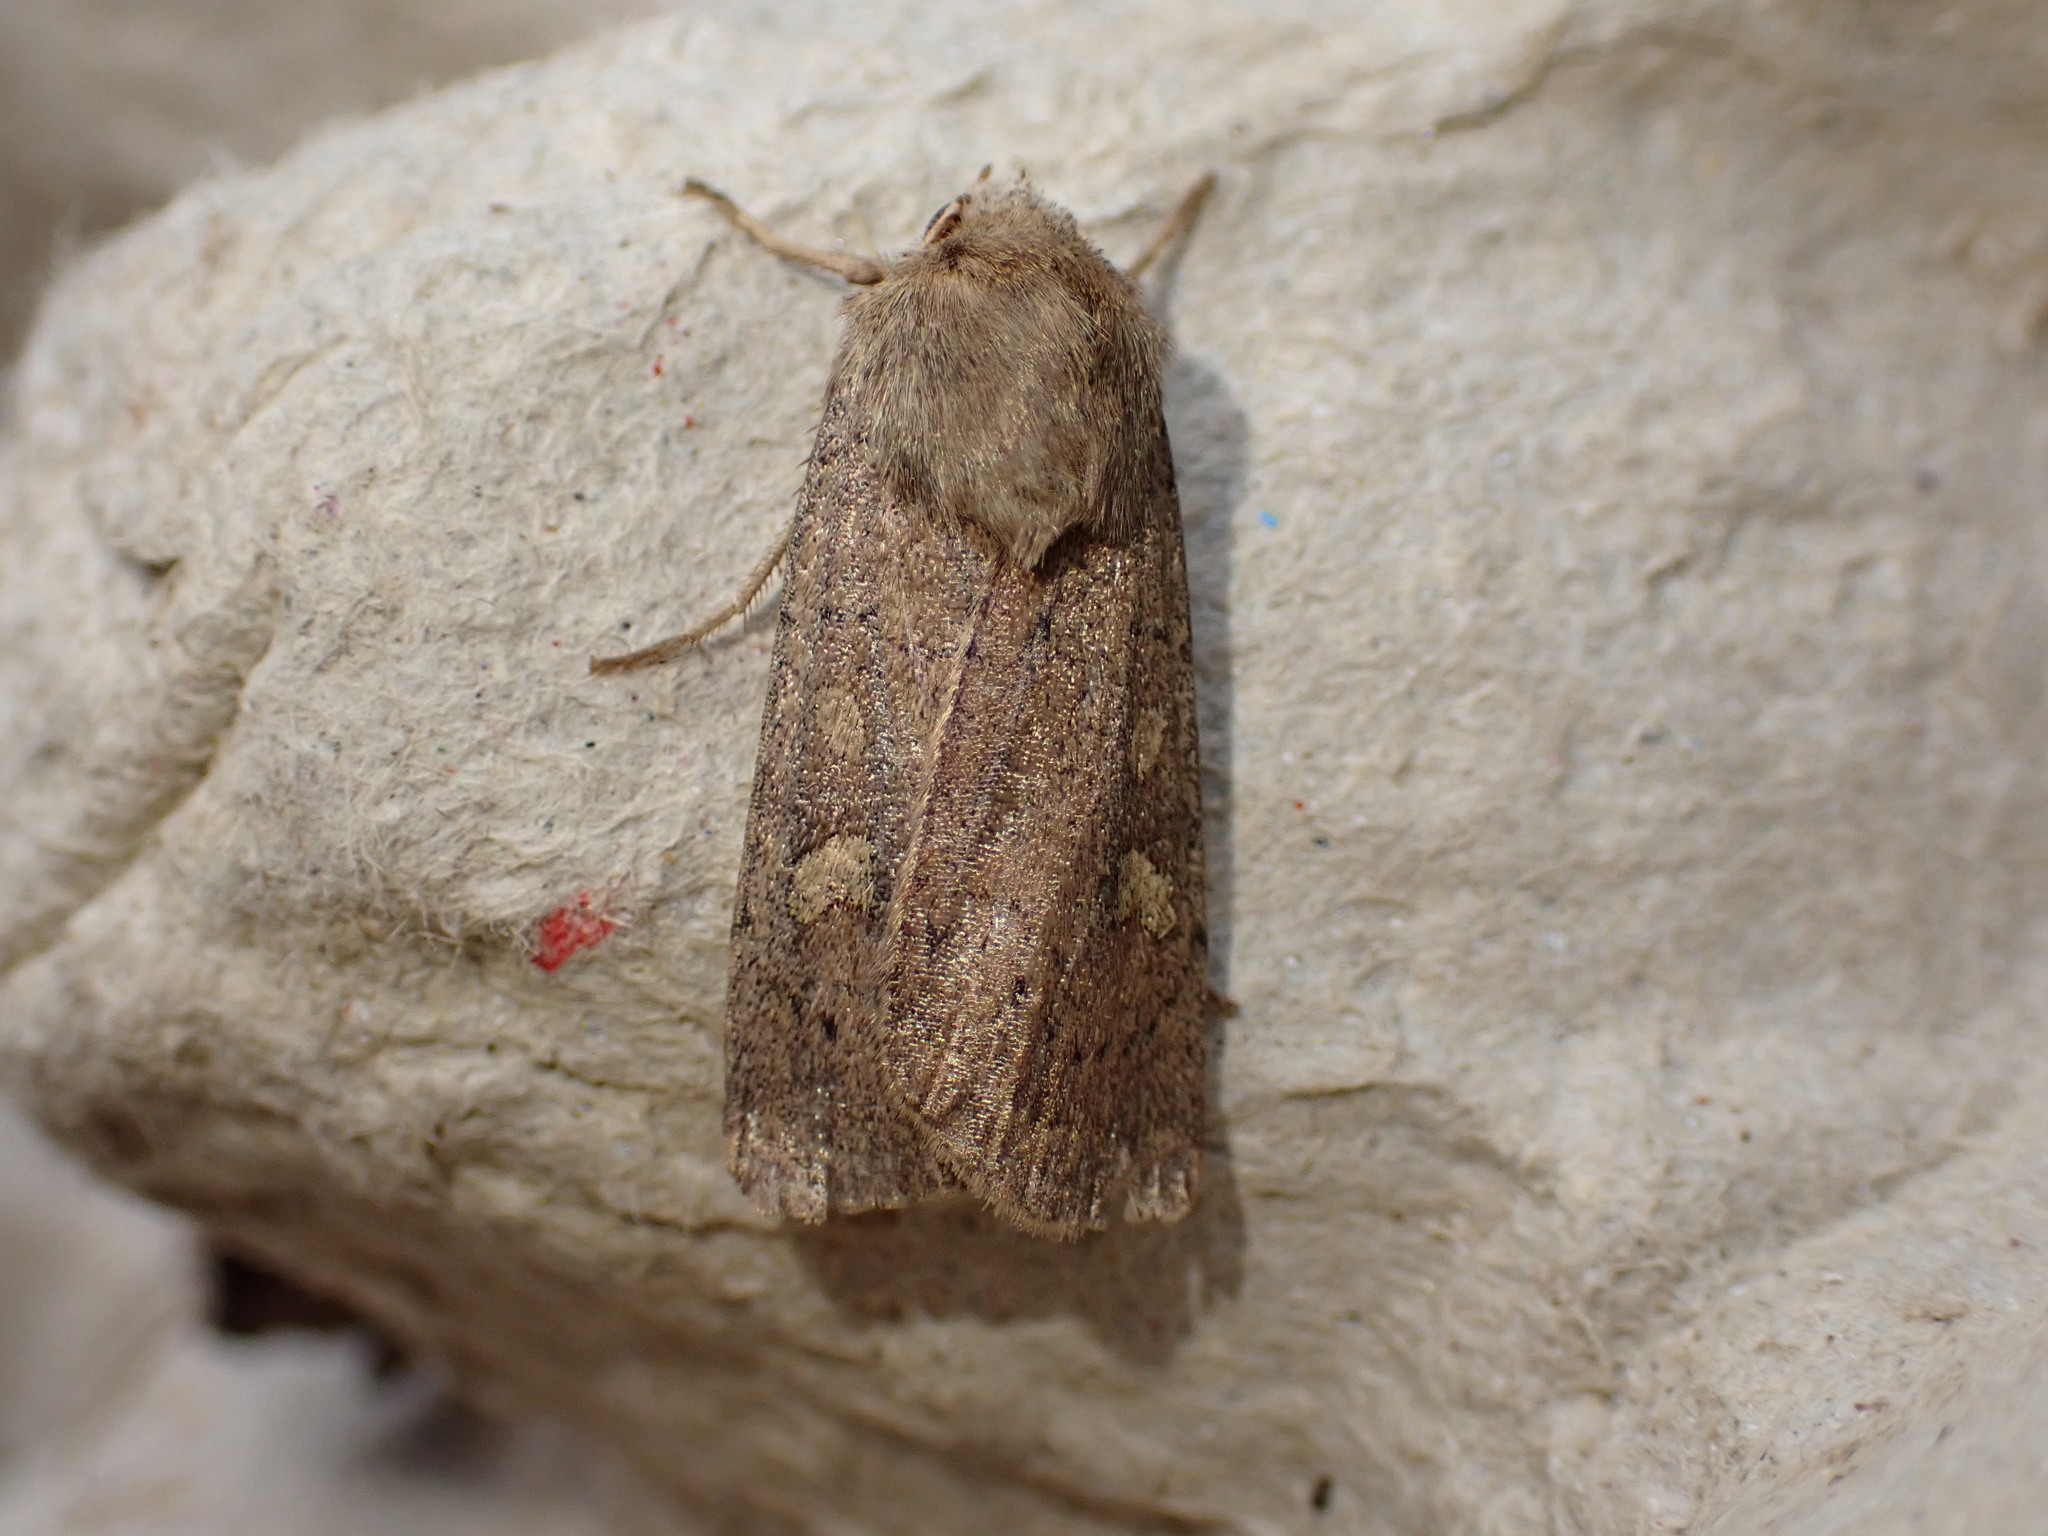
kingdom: Animalia
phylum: Arthropoda
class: Insecta
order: Lepidoptera
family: Noctuidae
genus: Xestia
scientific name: Xestia xanthographa
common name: Square-spot rustic
